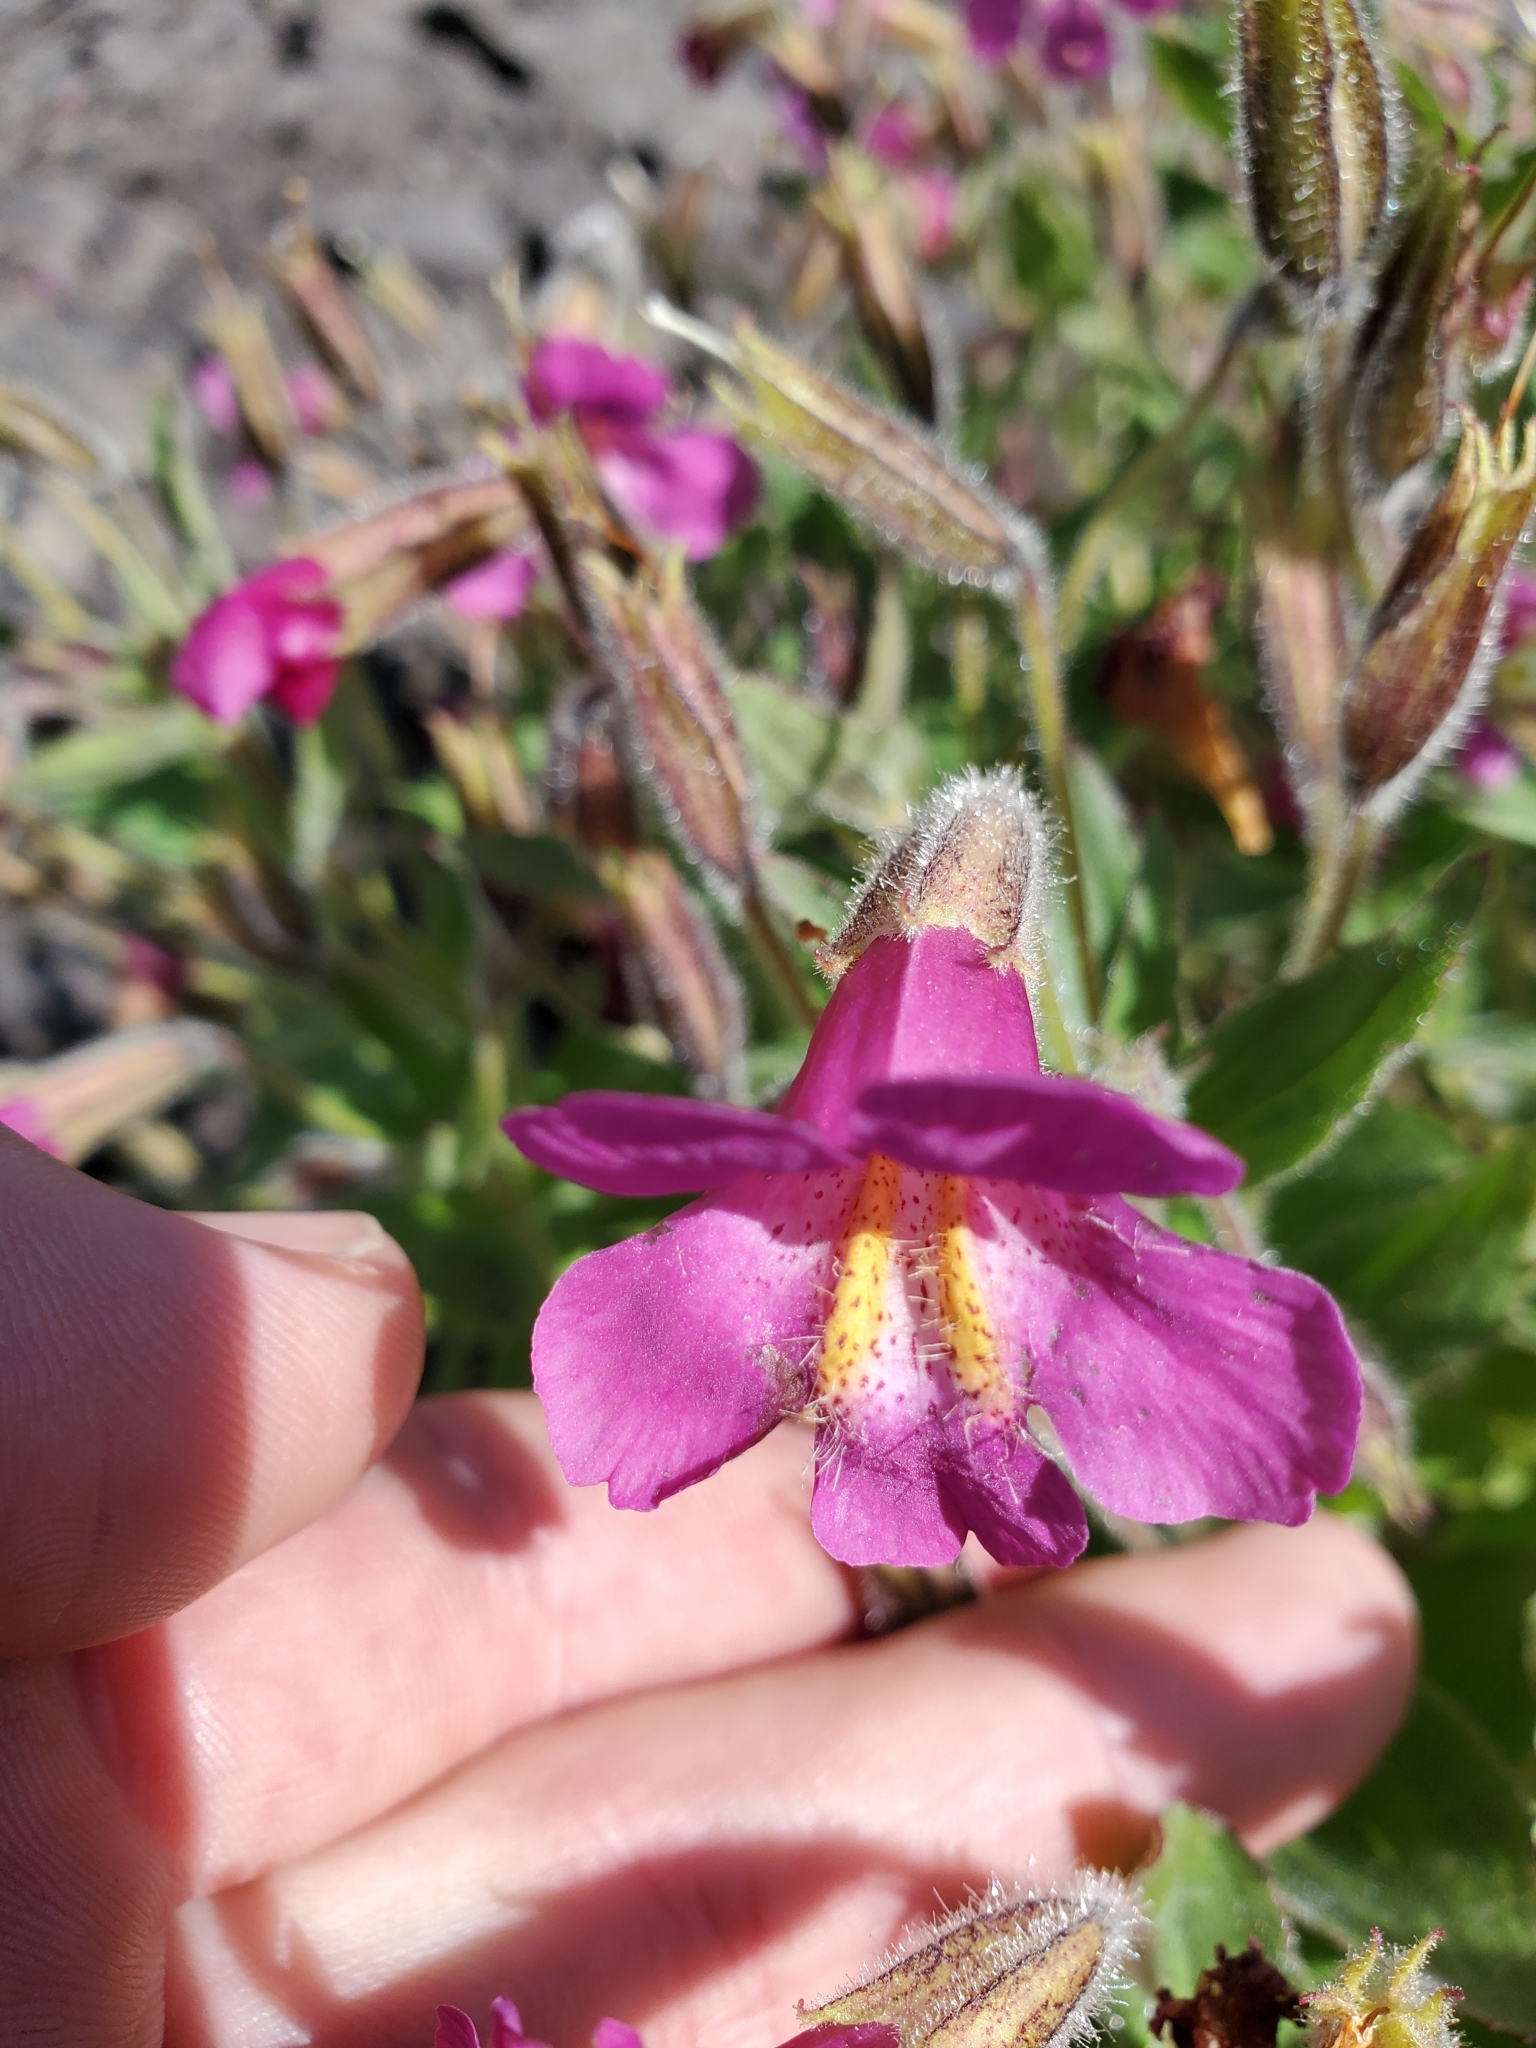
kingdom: Plantae
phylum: Tracheophyta
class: Magnoliopsida
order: Lamiales
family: Phrymaceae
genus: Erythranthe
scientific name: Erythranthe lewisii
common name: Lewis's monkey-flower
